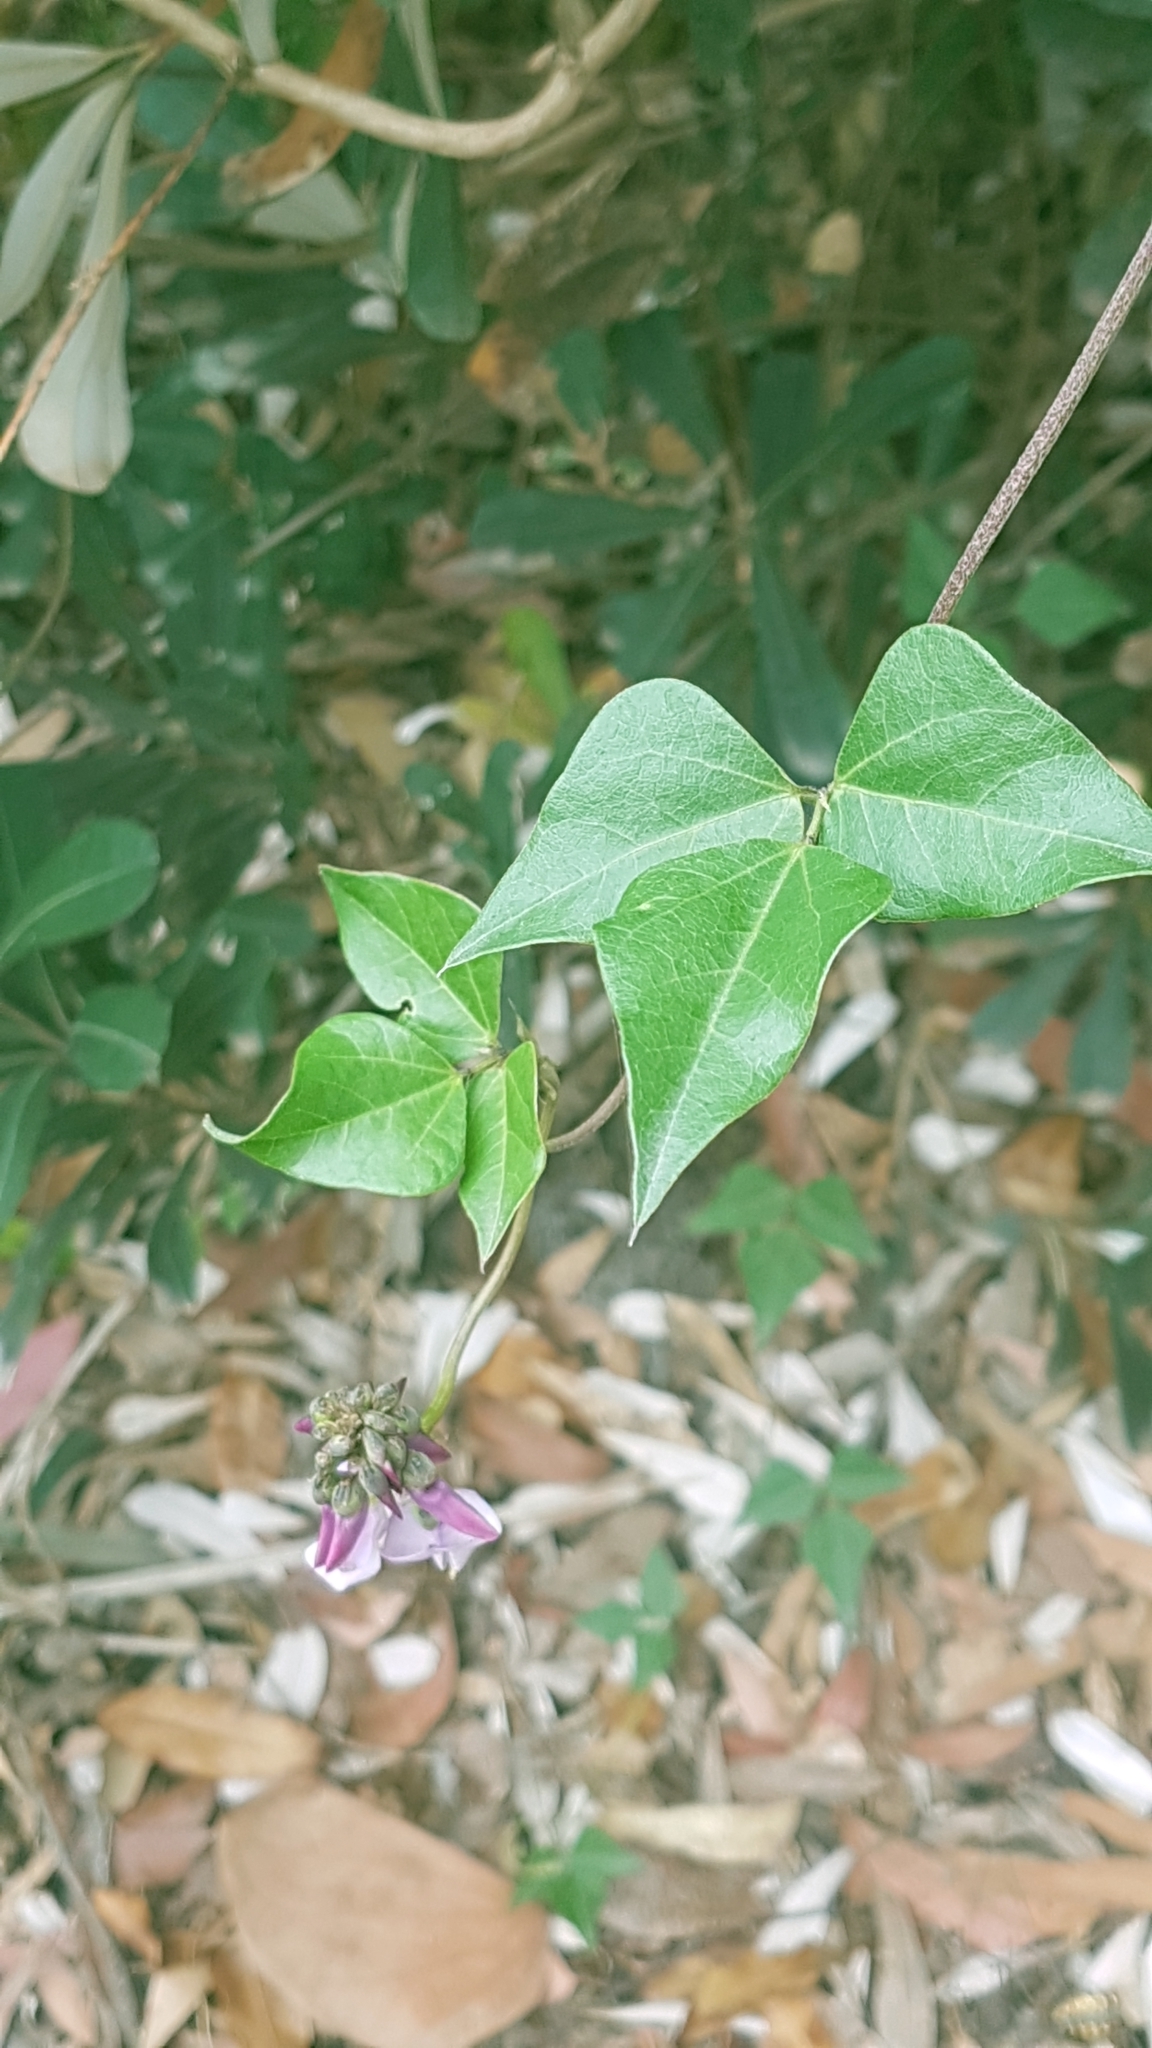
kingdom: Plantae
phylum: Tracheophyta
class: Magnoliopsida
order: Fabales
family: Fabaceae
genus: Dipogon
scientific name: Dipogon lignosus
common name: Okie bean
